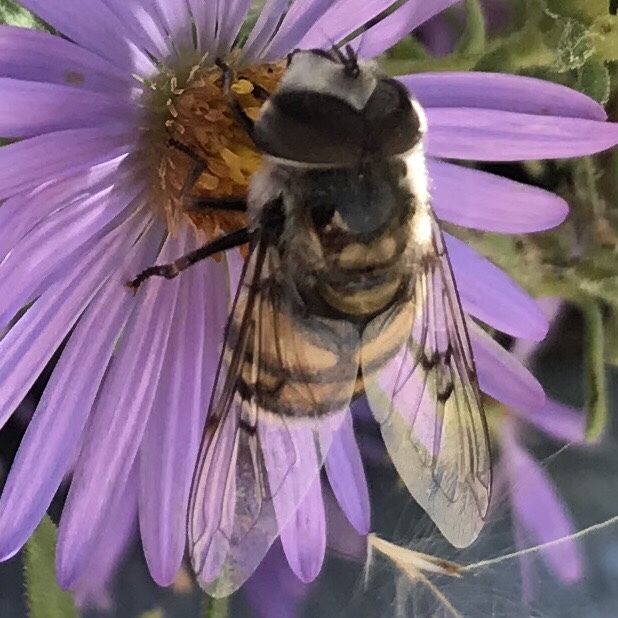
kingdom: Animalia
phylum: Arthropoda
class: Insecta
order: Diptera
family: Syrphidae
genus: Copestylum
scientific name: Copestylum avidum
